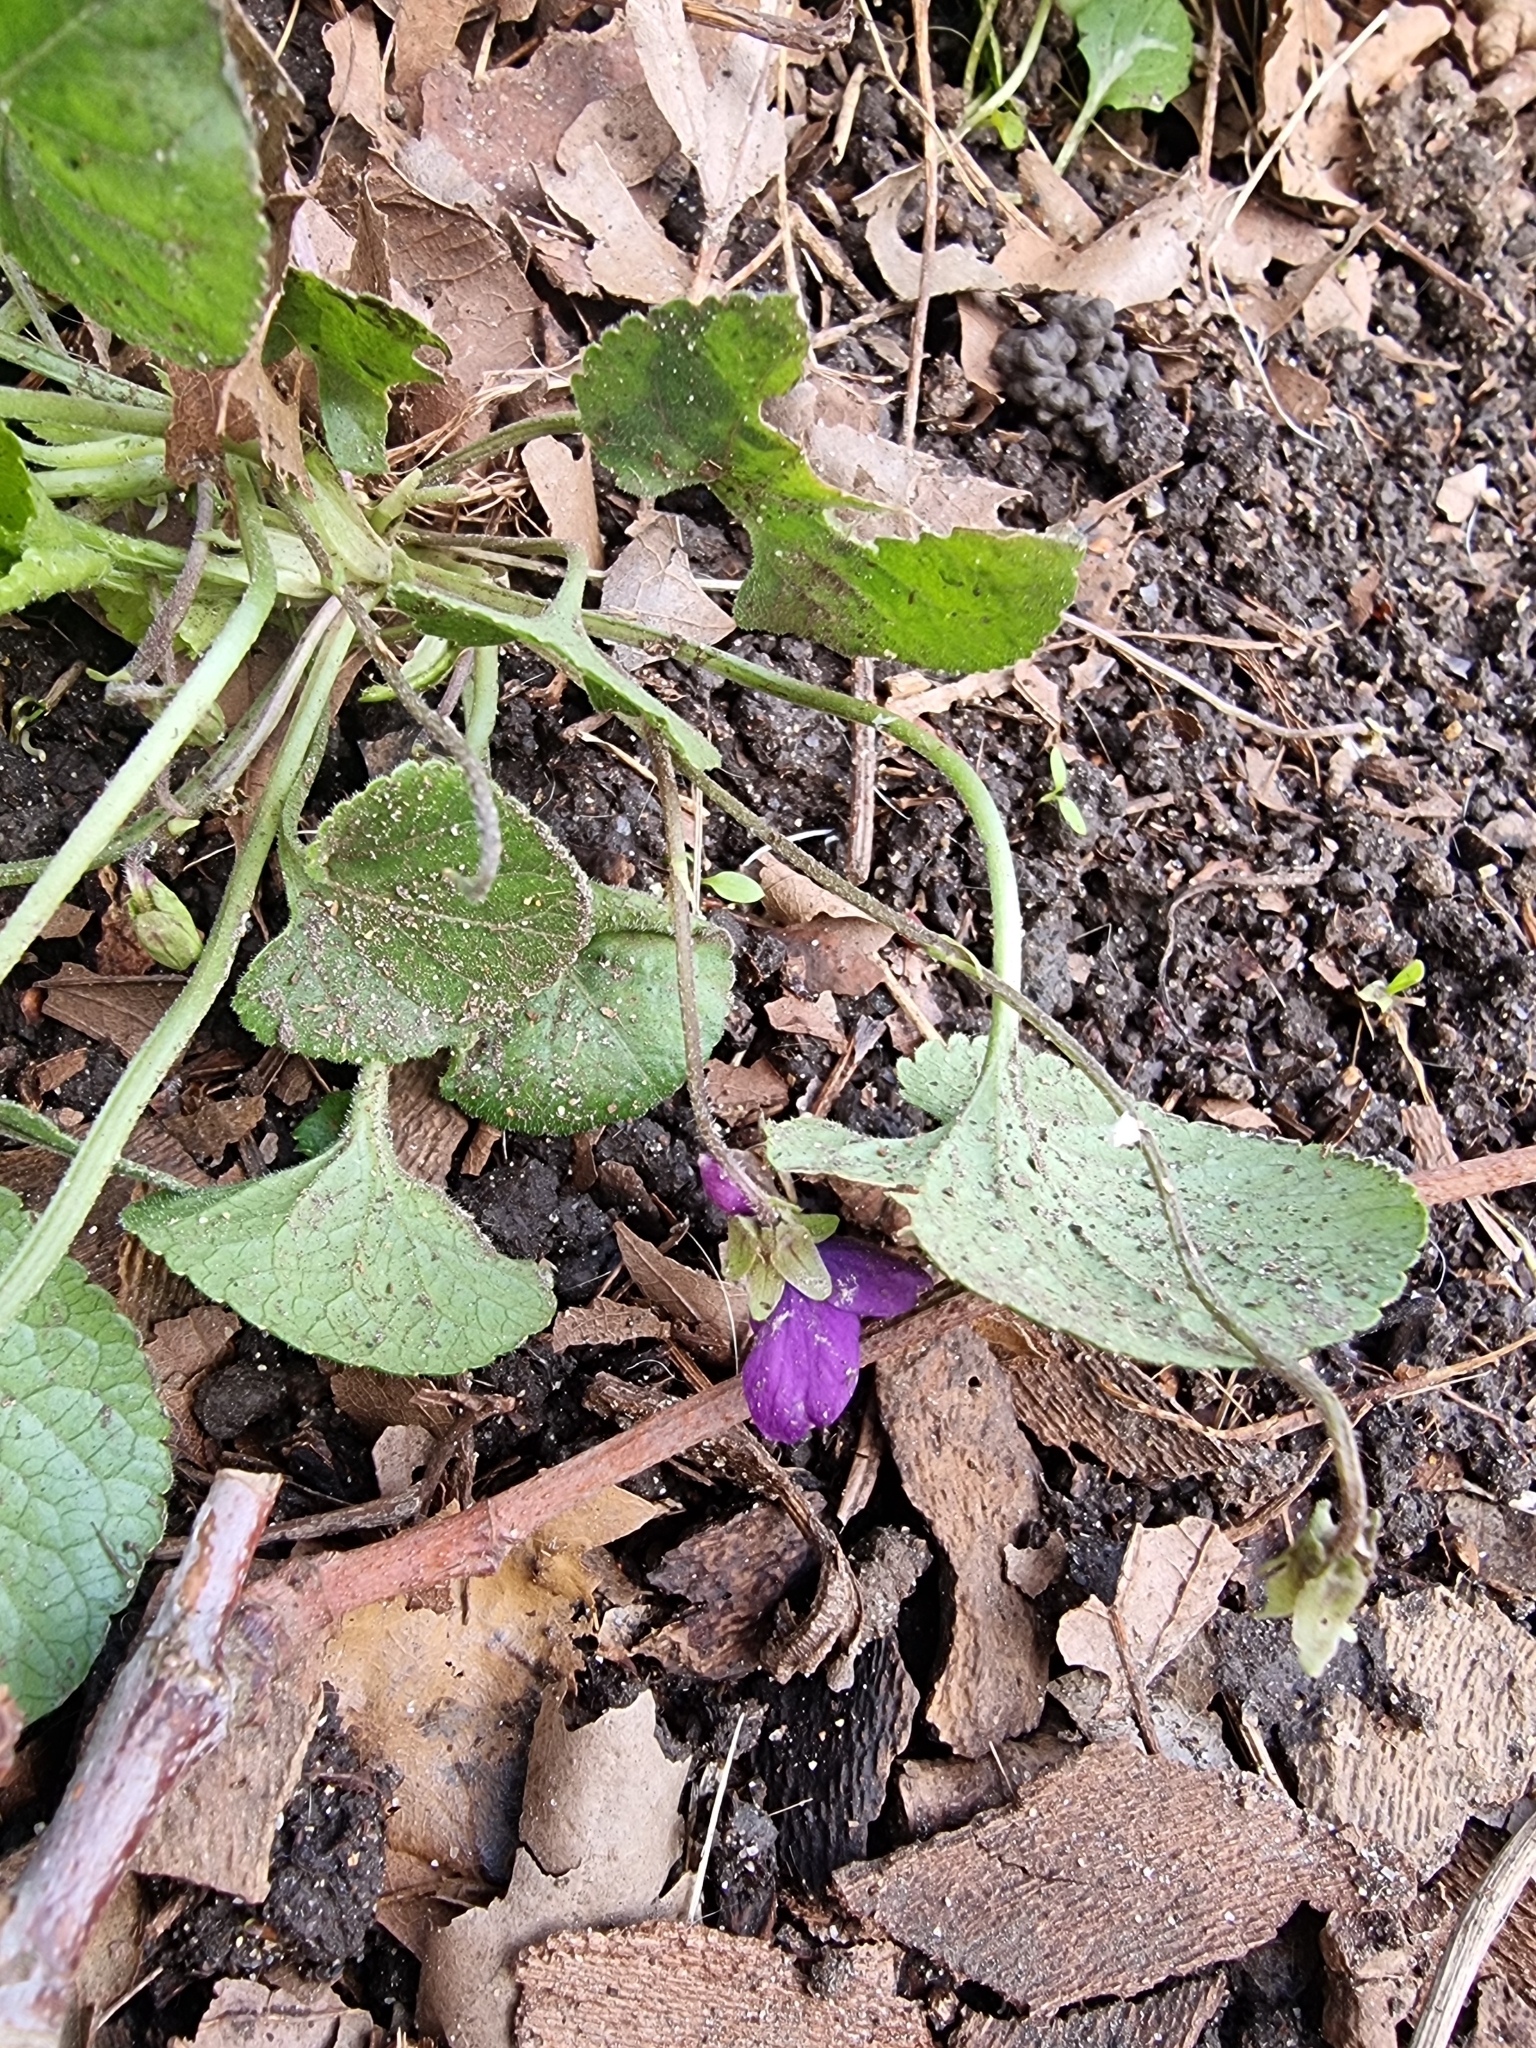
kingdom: Plantae
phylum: Tracheophyta
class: Magnoliopsida
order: Malpighiales
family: Violaceae
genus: Viola
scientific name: Viola odorata
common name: Sweet violet
